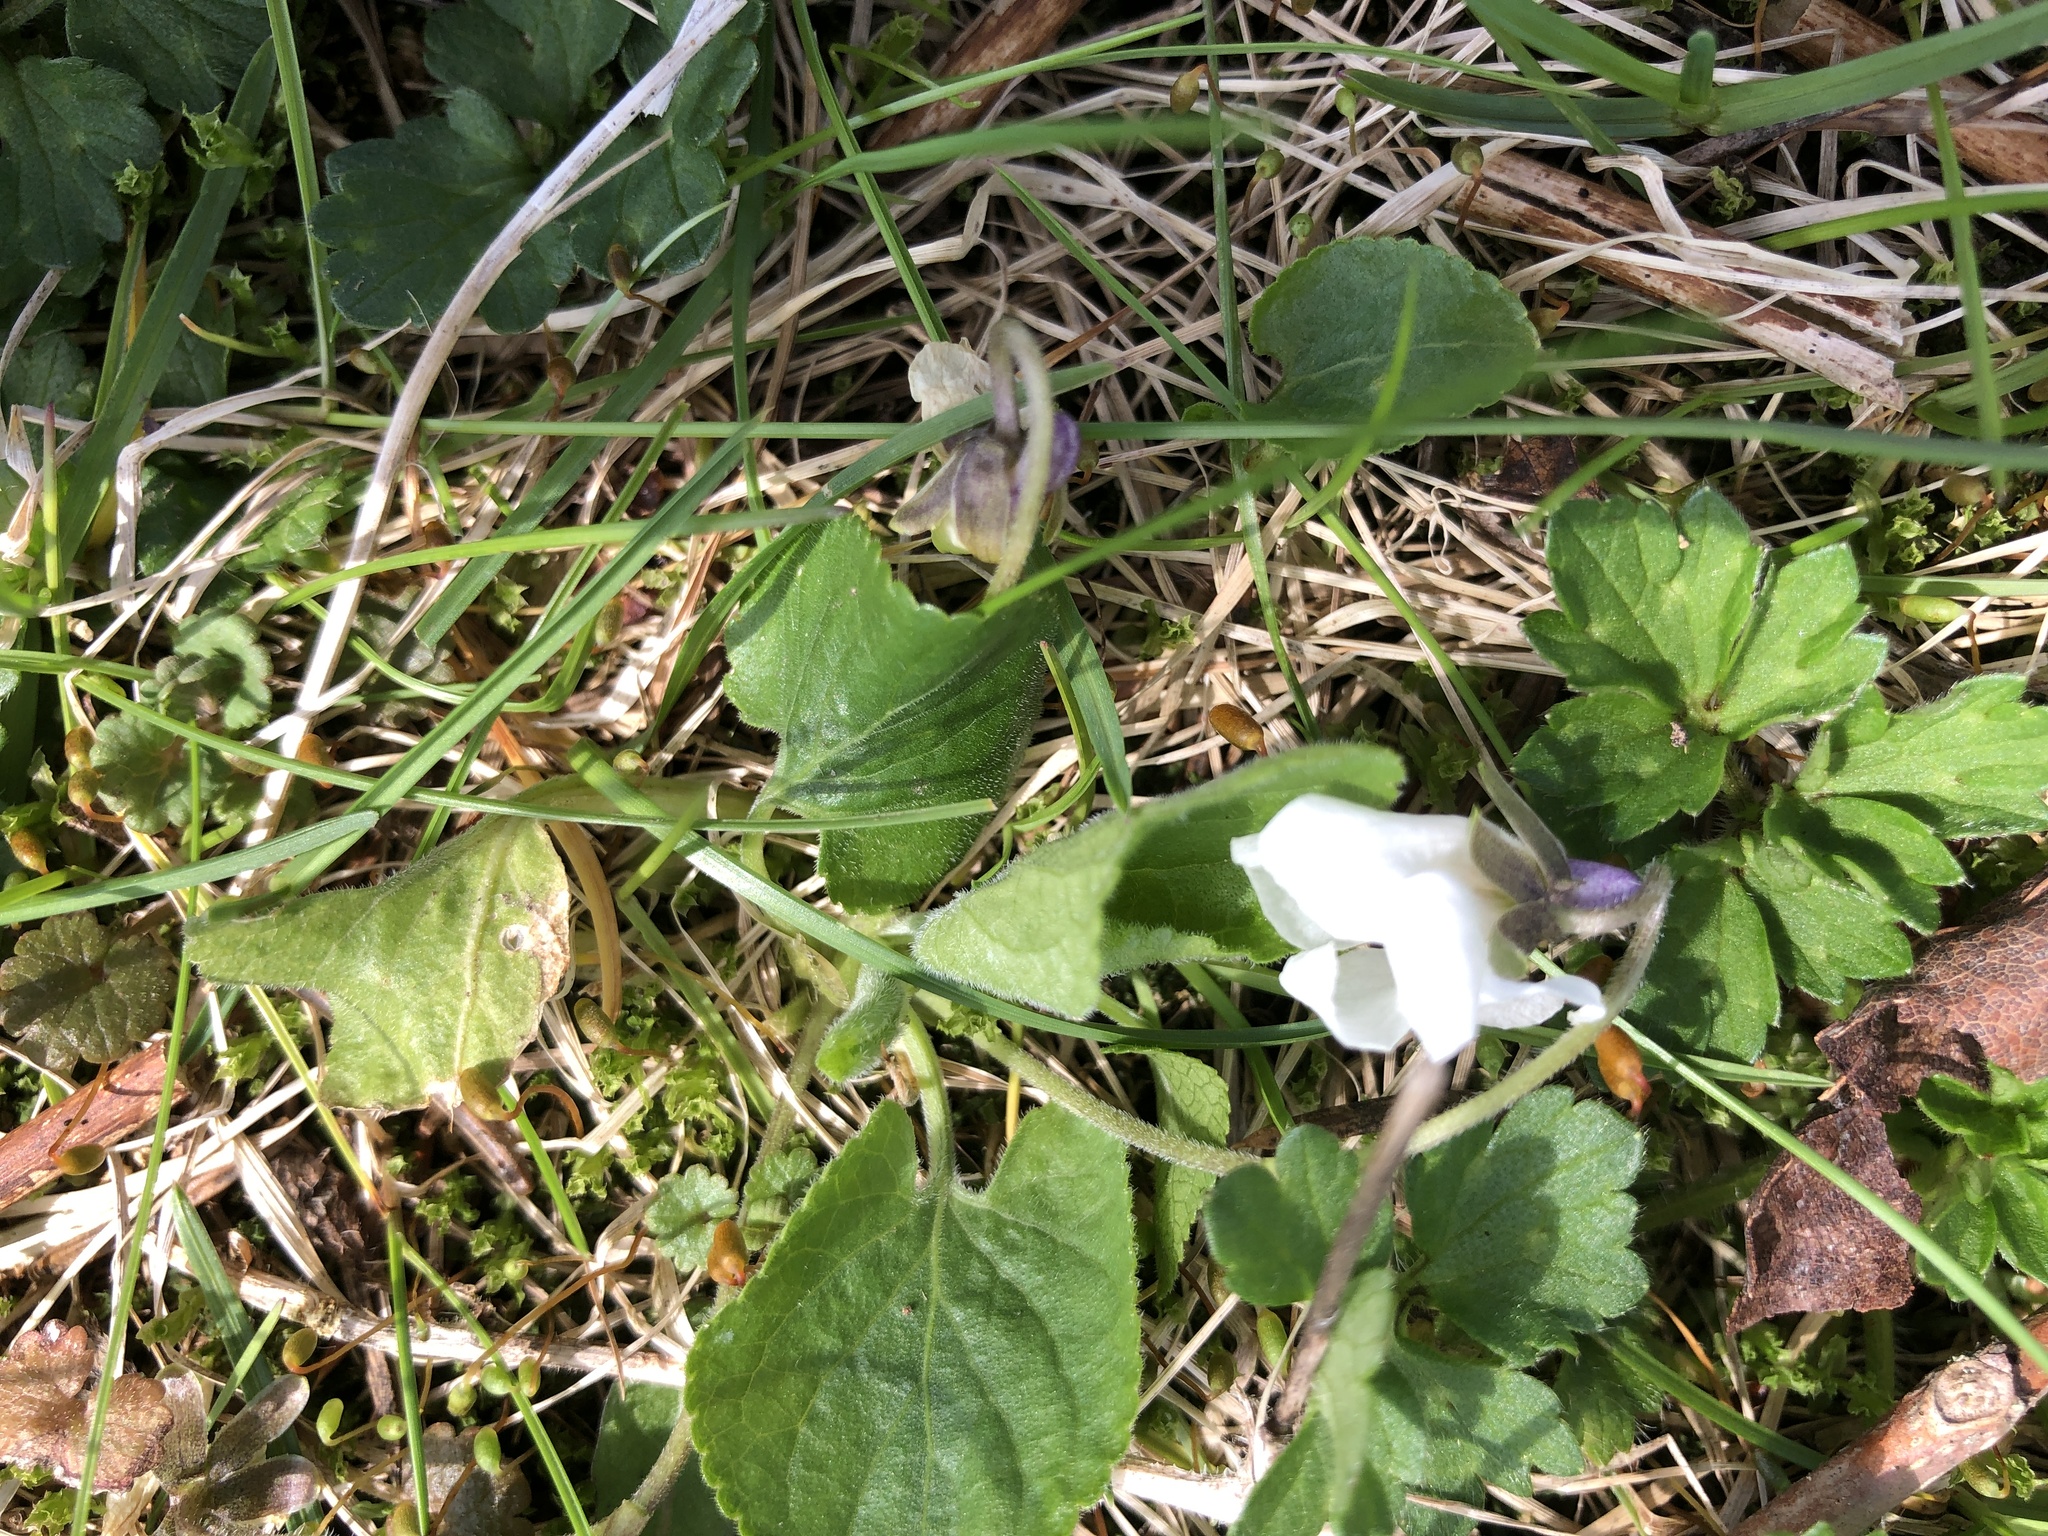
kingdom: Plantae
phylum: Tracheophyta
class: Magnoliopsida
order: Malpighiales
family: Violaceae
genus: Viola
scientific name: Viola odorata
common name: Sweet violet
